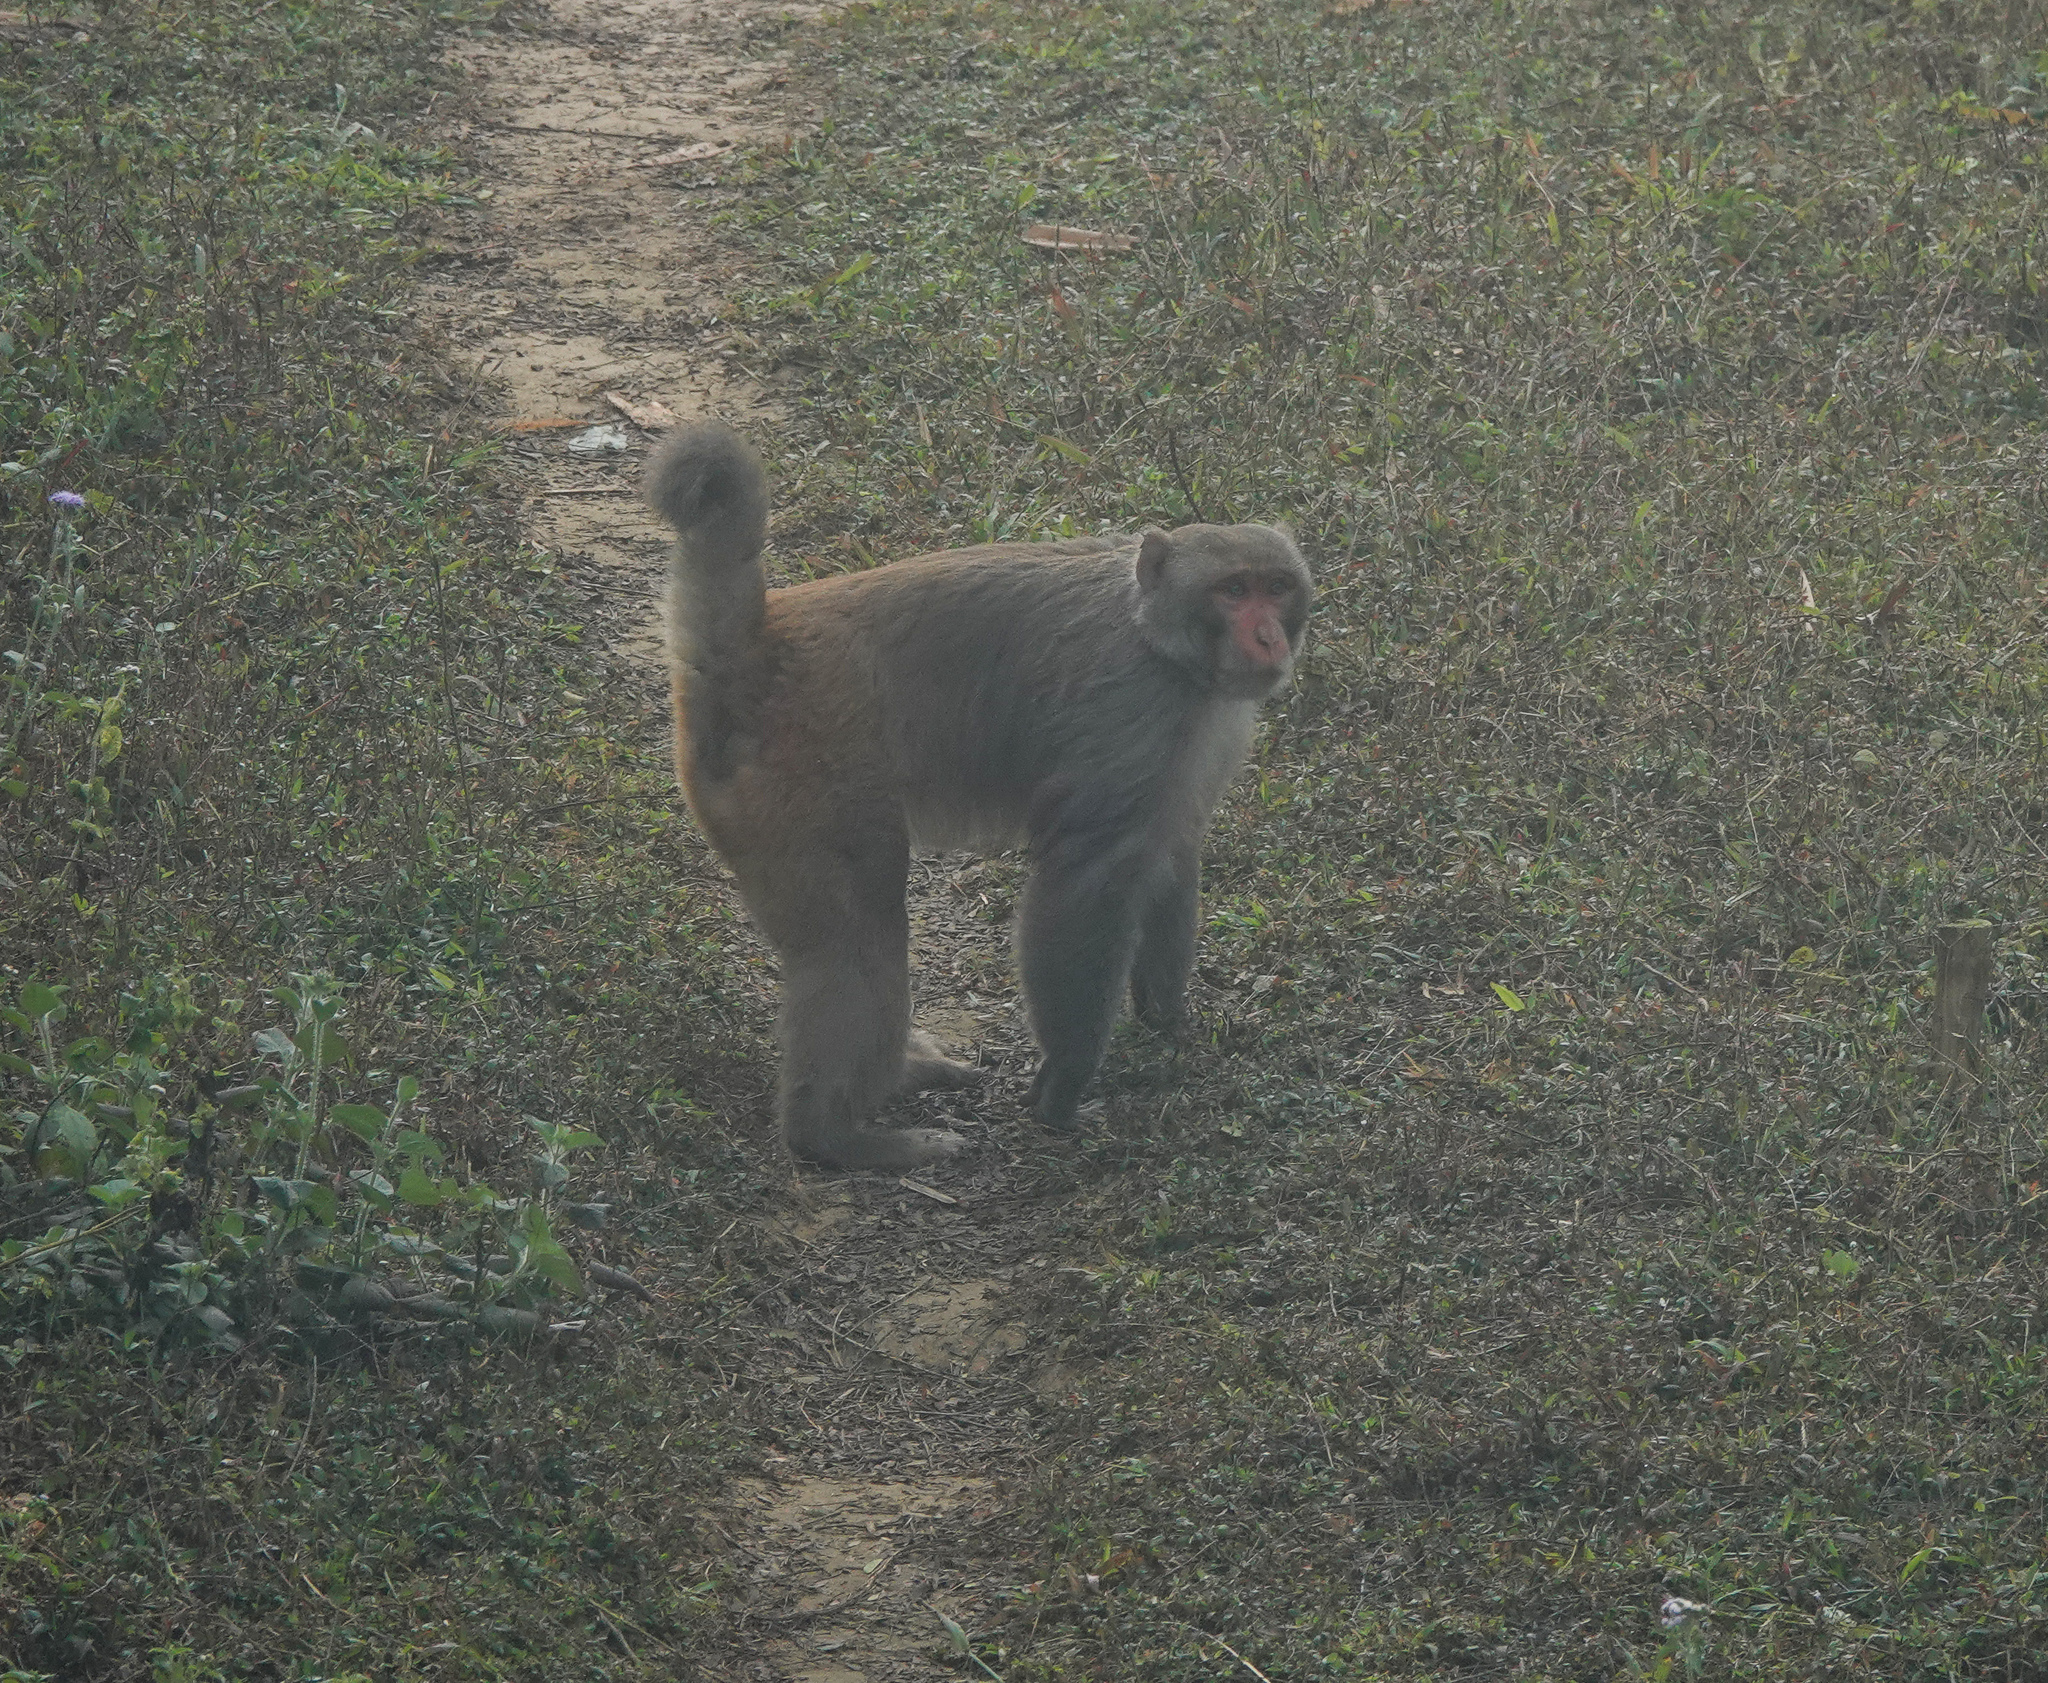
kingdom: Animalia
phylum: Chordata
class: Mammalia
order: Primates
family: Cercopithecidae
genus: Macaca
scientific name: Macaca mulatta
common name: Rhesus monkey
